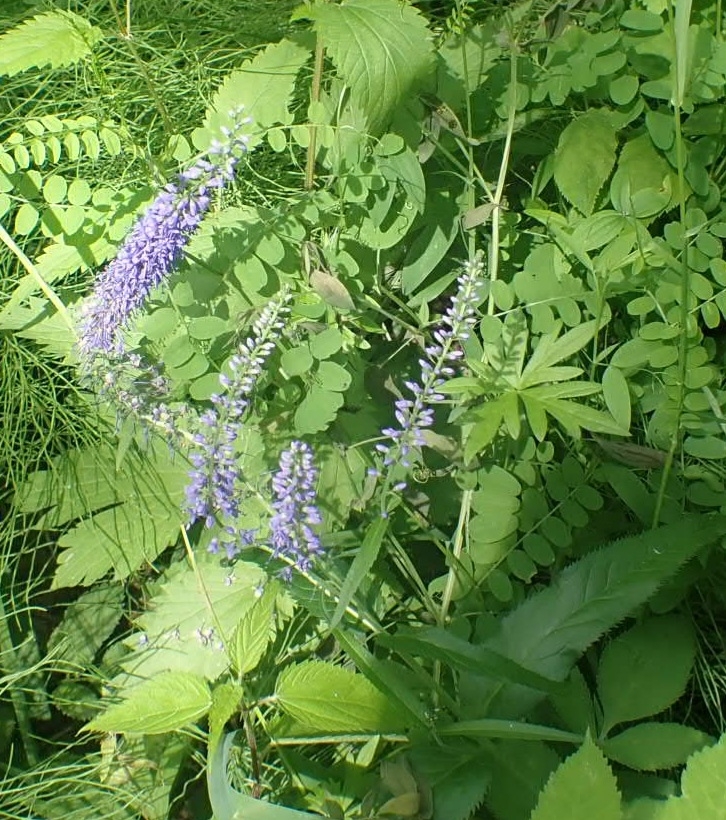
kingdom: Plantae
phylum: Tracheophyta
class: Magnoliopsida
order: Lamiales
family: Plantaginaceae
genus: Veronica
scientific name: Veronica longifolia
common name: Garden speedwell
